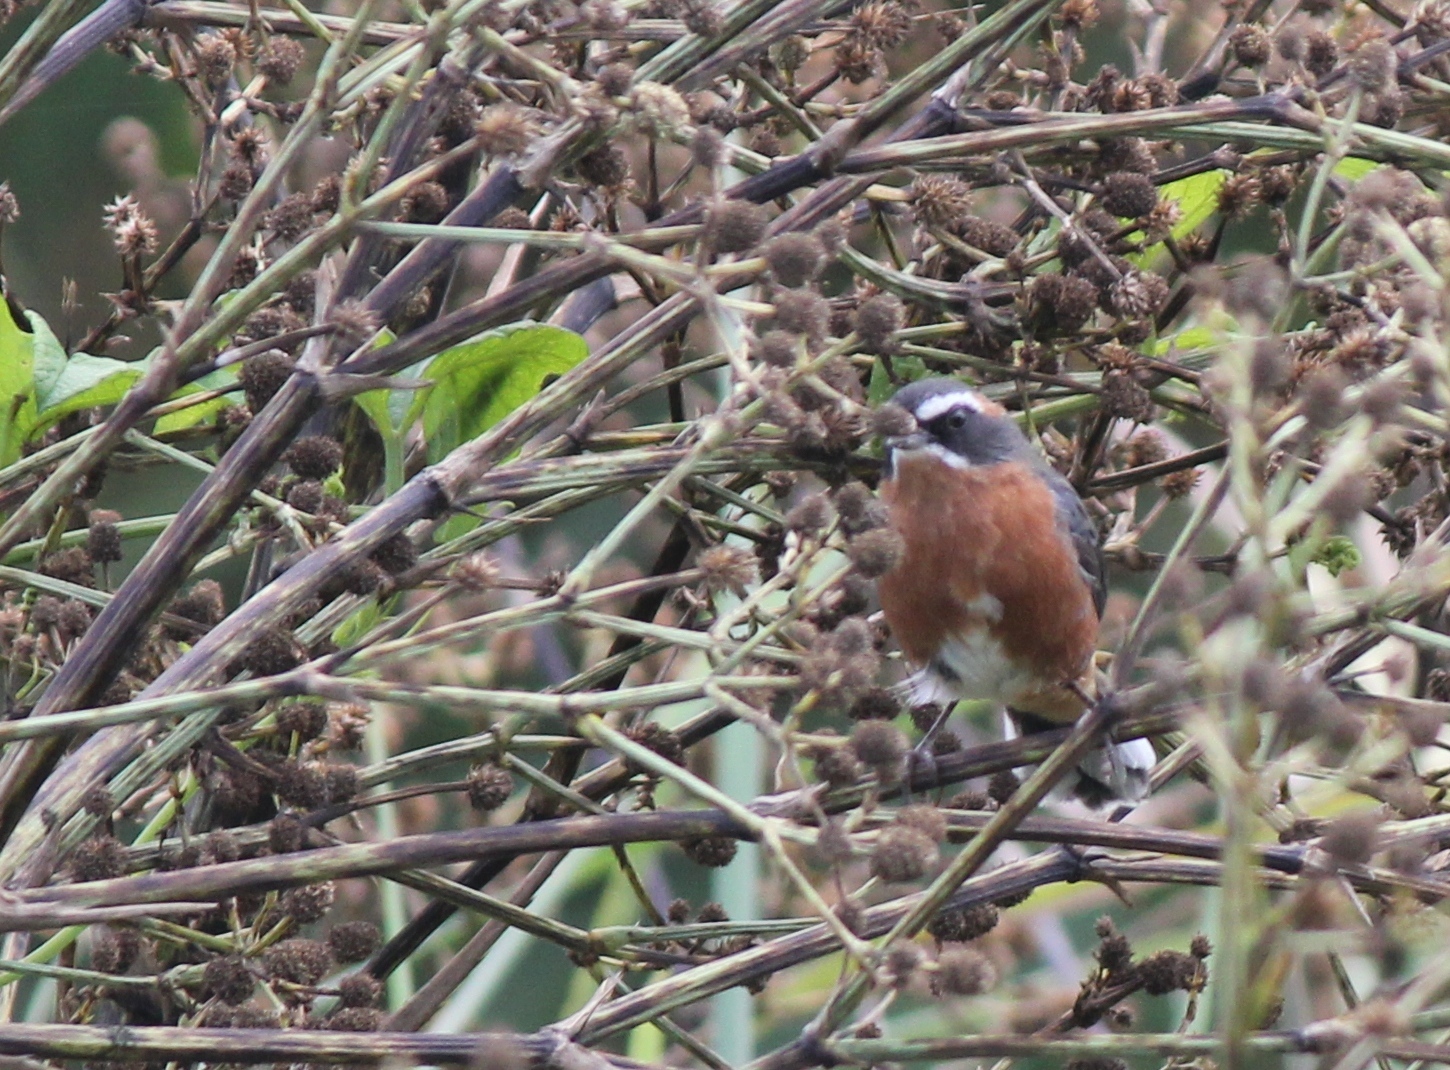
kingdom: Animalia
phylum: Chordata
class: Aves
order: Passeriformes
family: Thraupidae
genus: Poospiza
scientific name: Poospiza nigrorufa
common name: Black-and-rufous warbling finch
